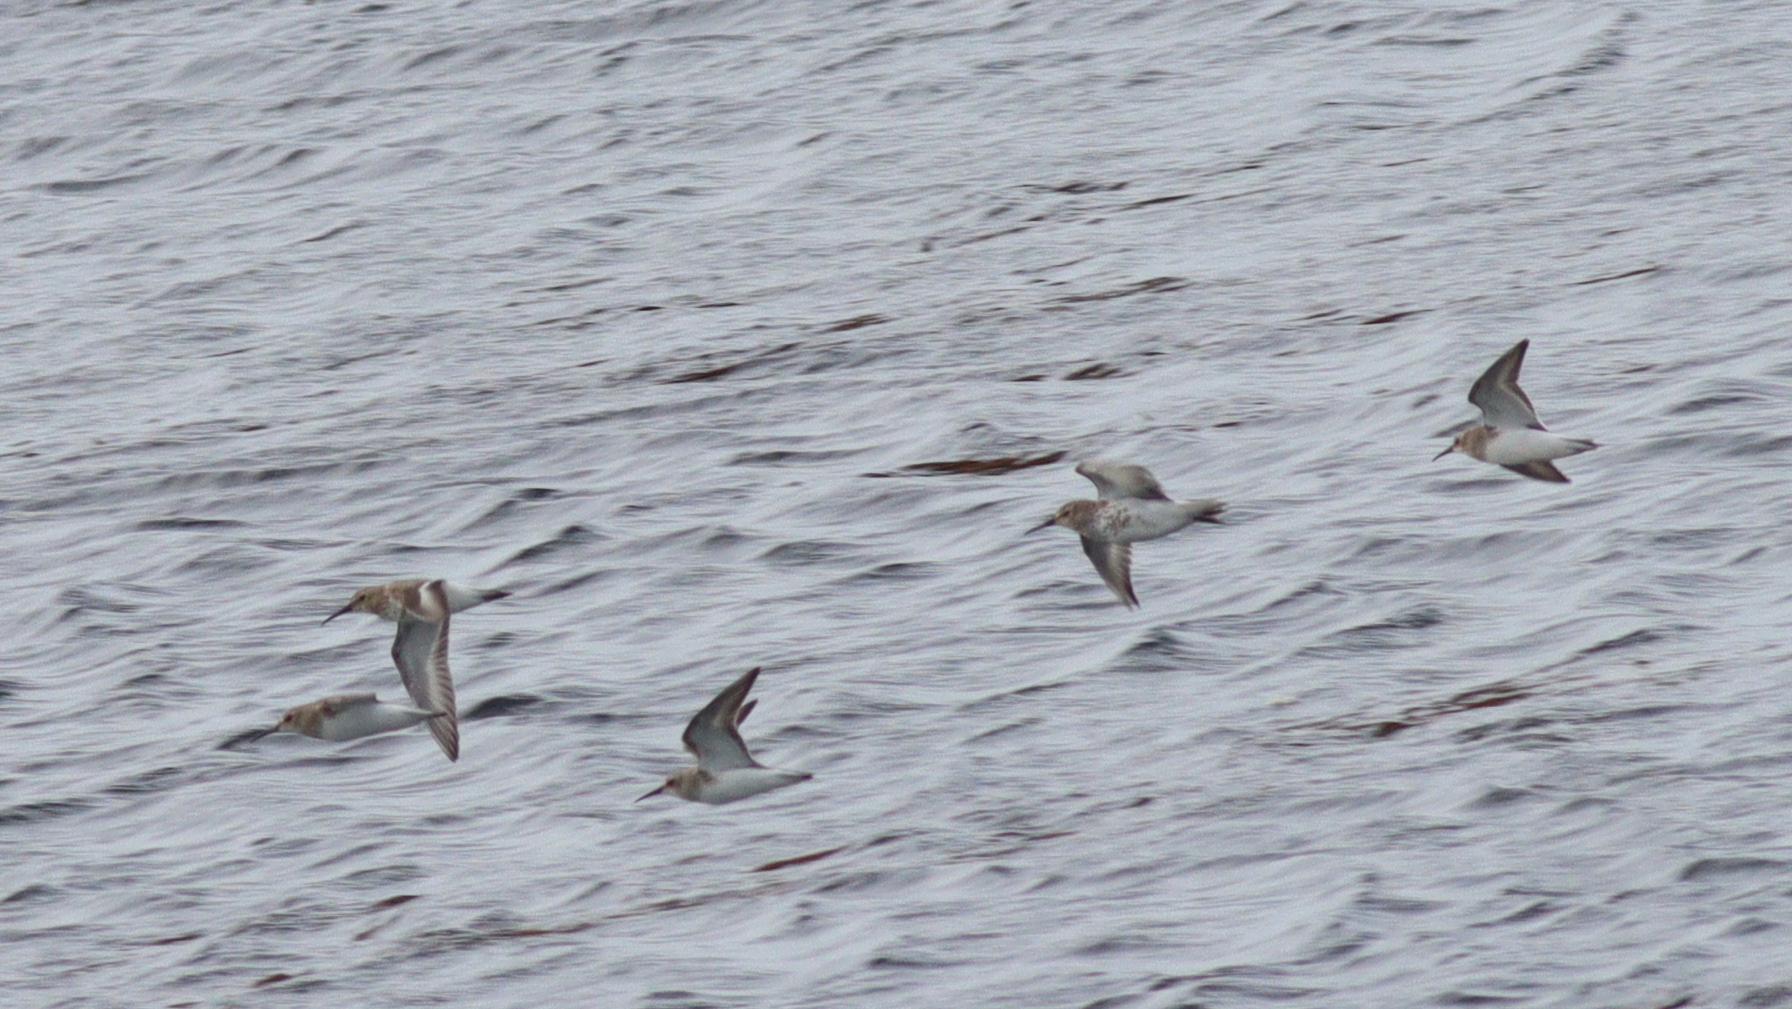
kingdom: Animalia
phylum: Chordata
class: Aves
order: Charadriiformes
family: Scolopacidae
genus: Calidris
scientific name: Calidris alpina
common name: Dunlin
